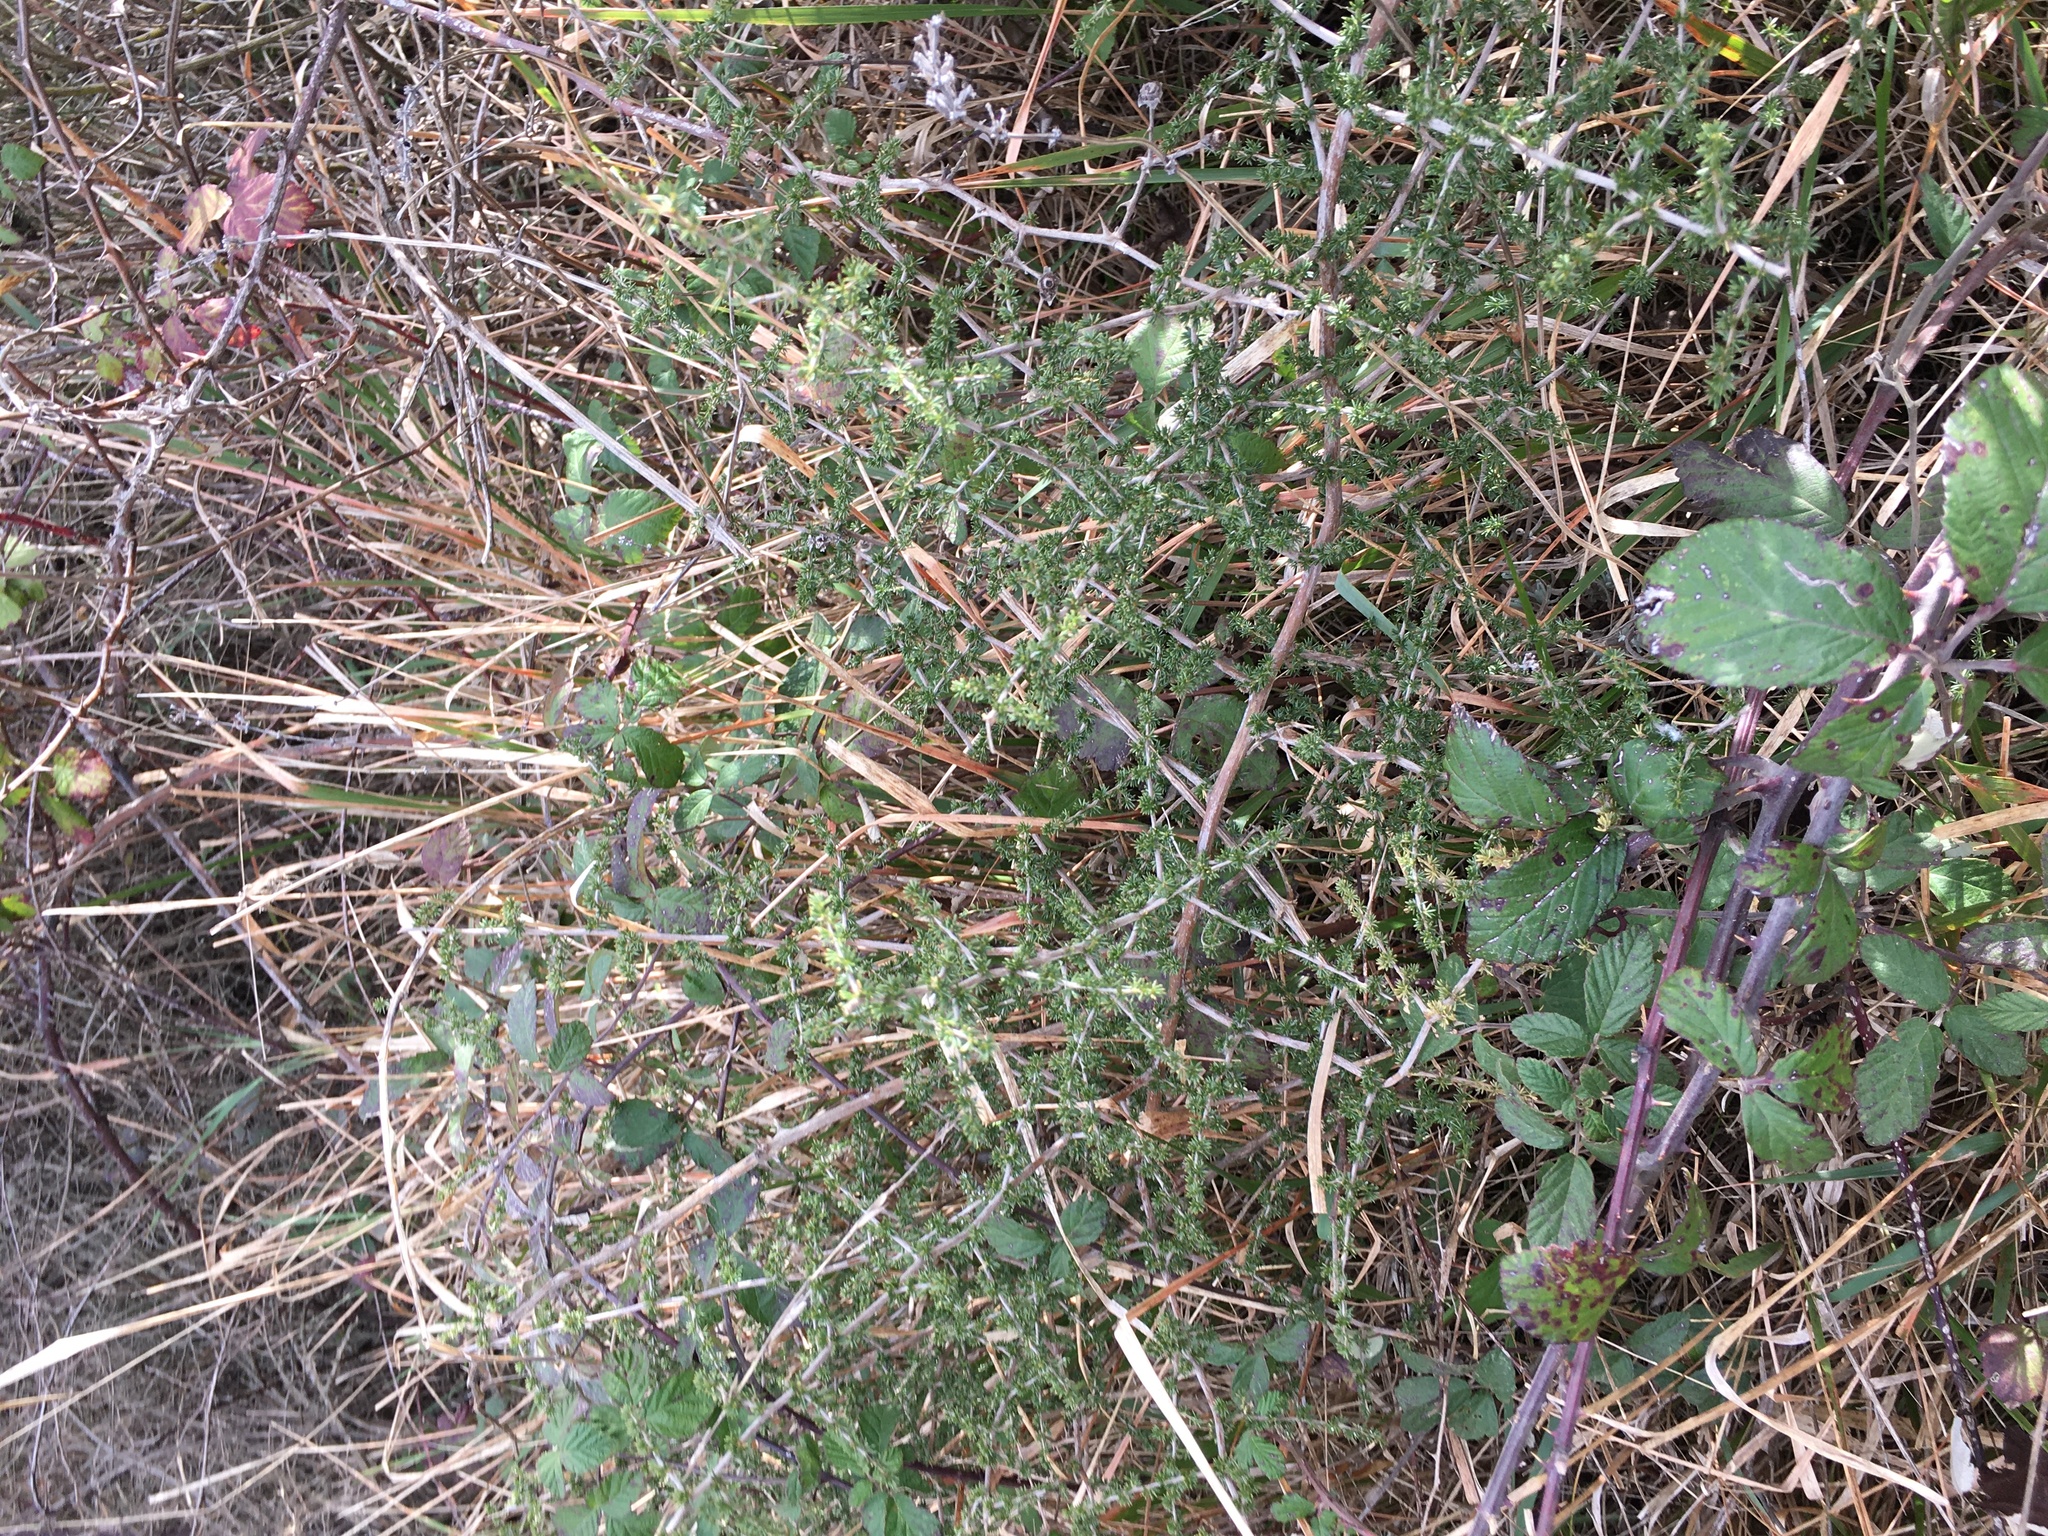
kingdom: Plantae
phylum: Tracheophyta
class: Liliopsida
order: Asparagales
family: Asparagaceae
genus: Asparagus
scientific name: Asparagus acutifolius
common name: Wild asparagus
